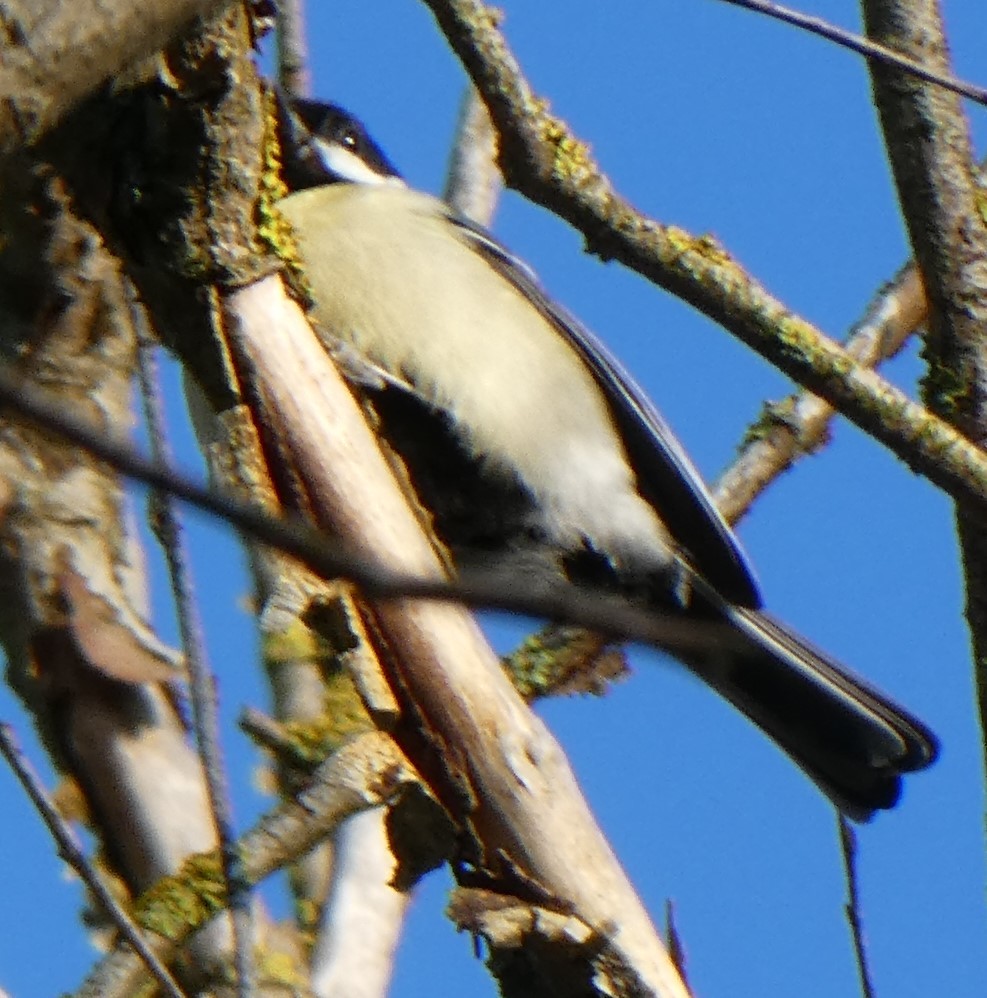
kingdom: Animalia
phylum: Chordata
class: Aves
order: Passeriformes
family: Paridae
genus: Parus
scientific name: Parus major
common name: Great tit
